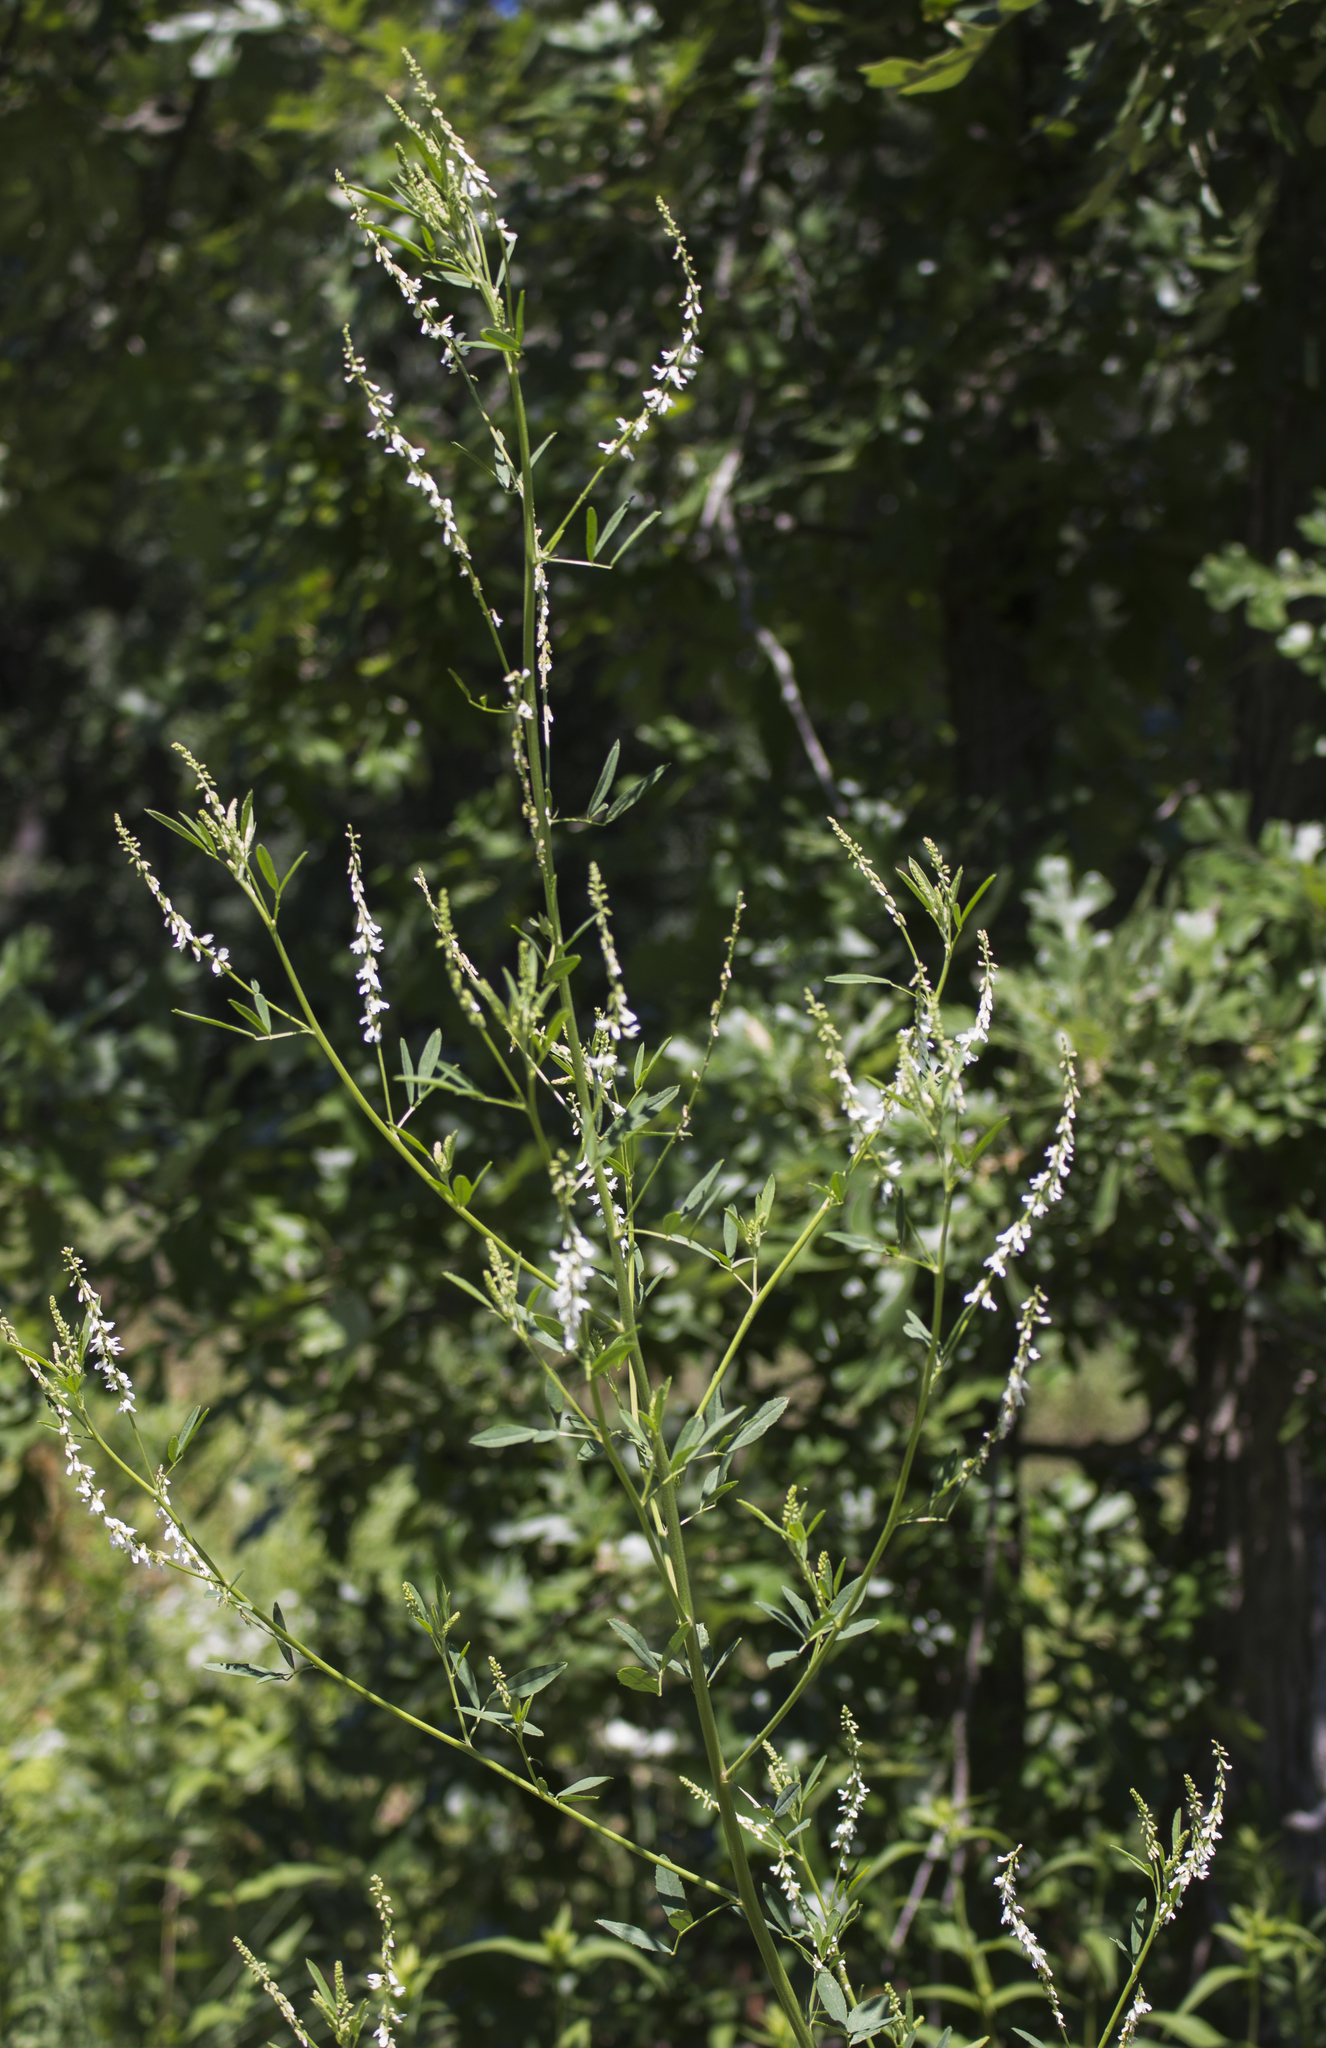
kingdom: Plantae
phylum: Tracheophyta
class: Magnoliopsida
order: Fabales
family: Fabaceae
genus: Melilotus
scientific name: Melilotus albus
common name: White melilot
